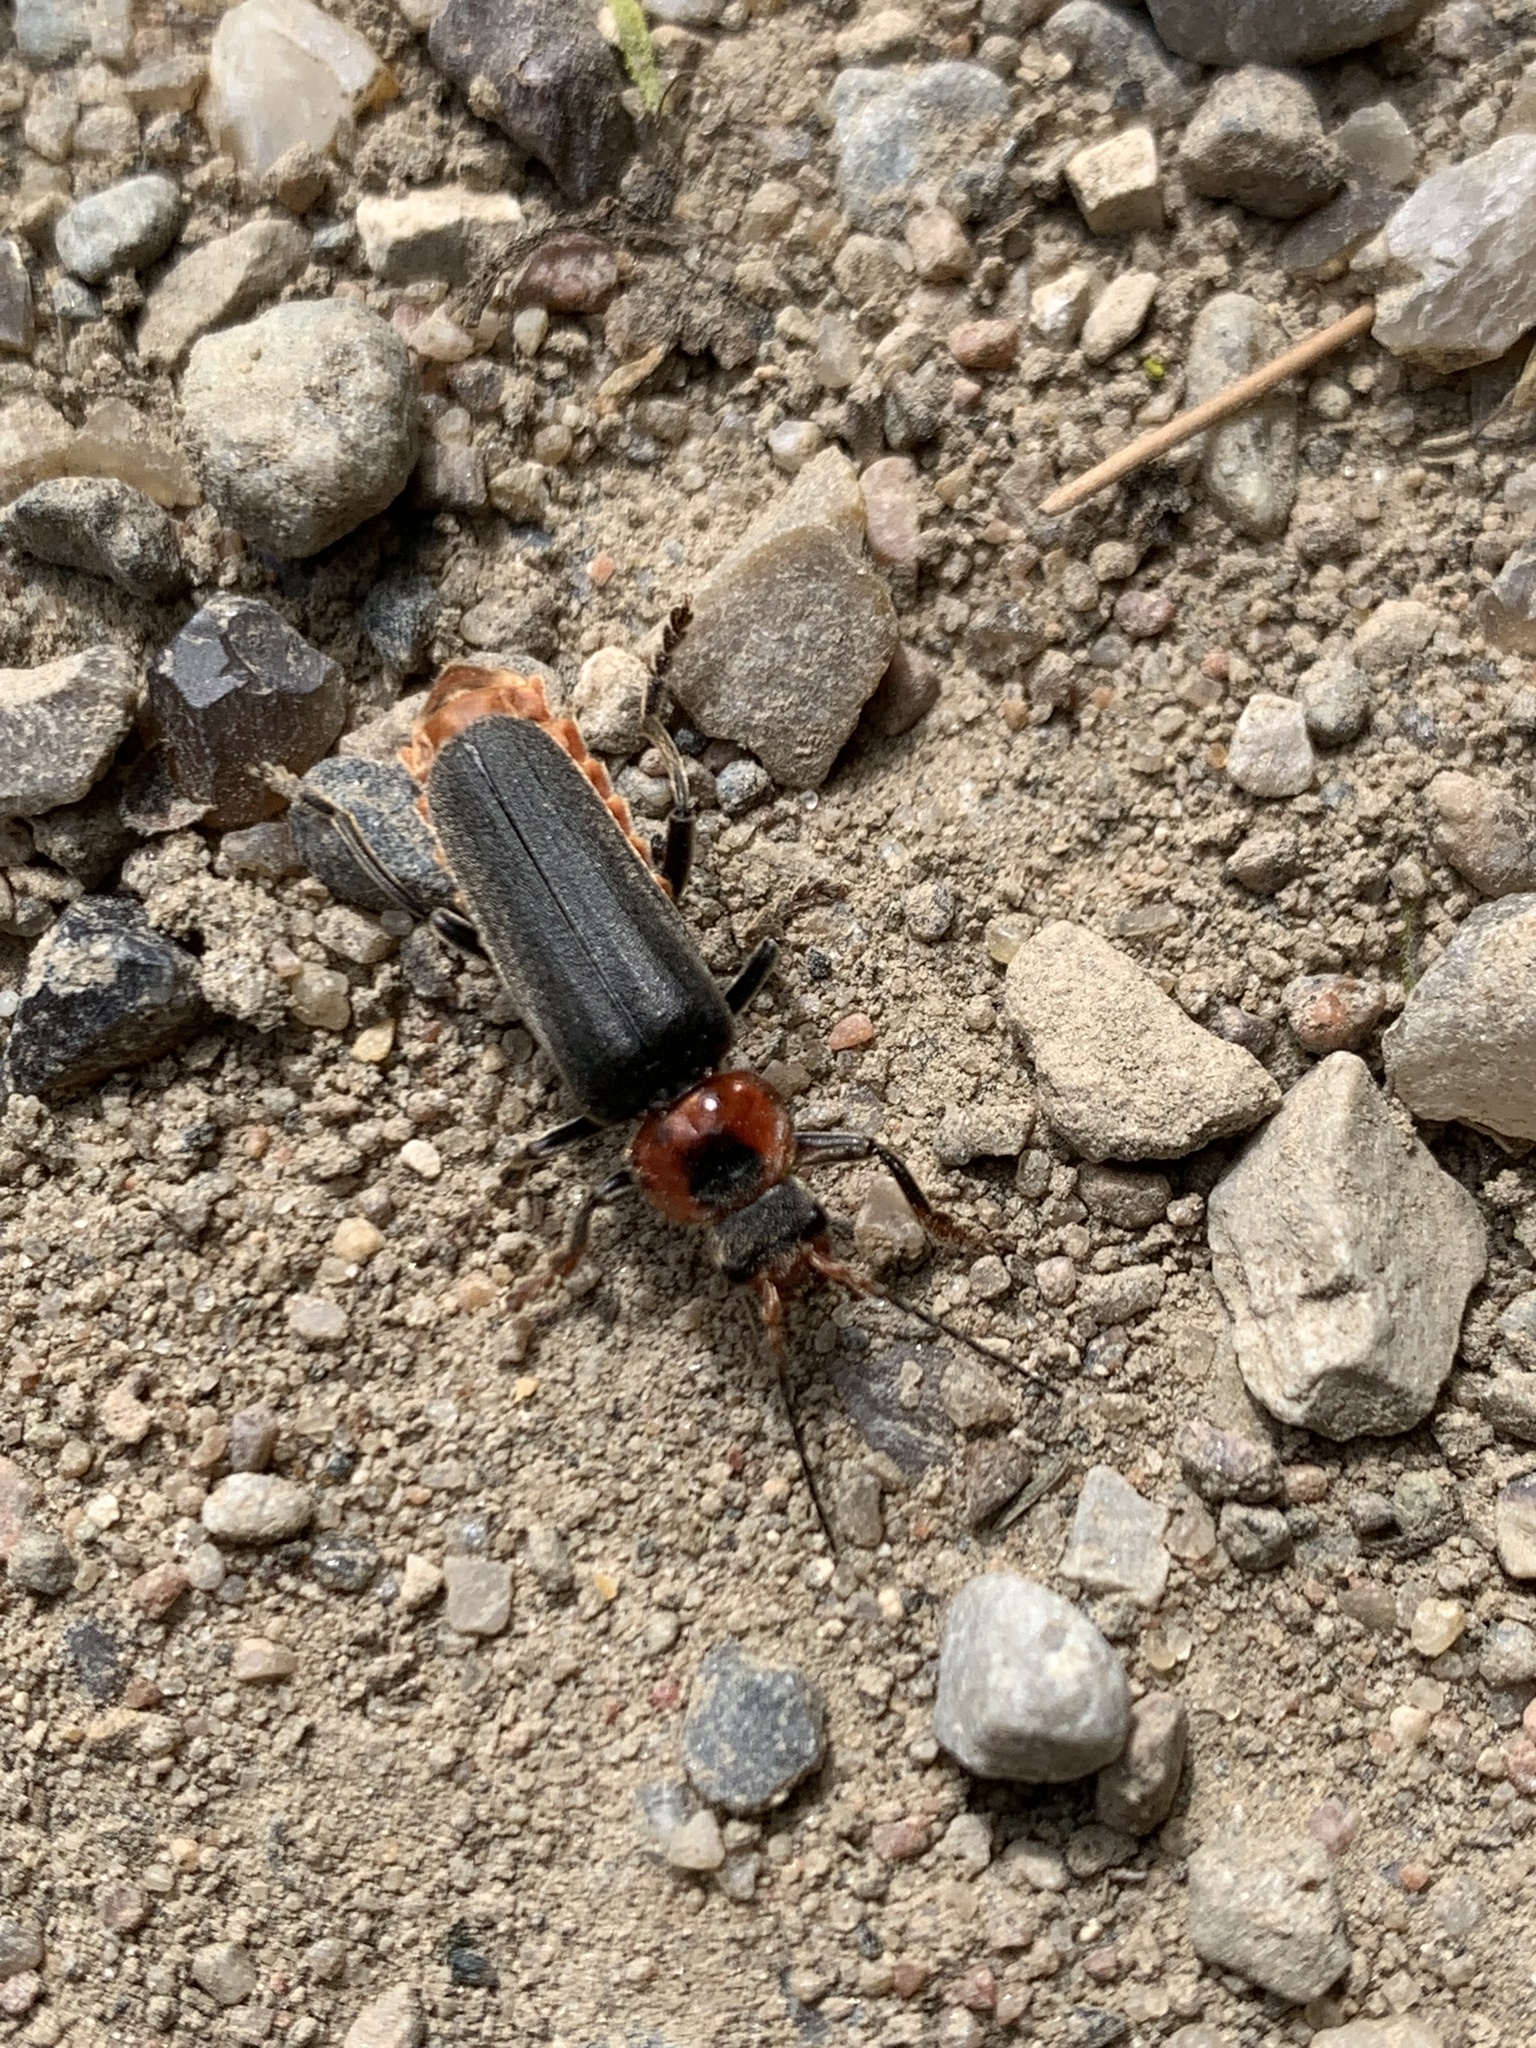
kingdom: Animalia
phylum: Arthropoda
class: Insecta
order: Coleoptera
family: Cantharidae
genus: Cantharis
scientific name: Cantharis fusca
